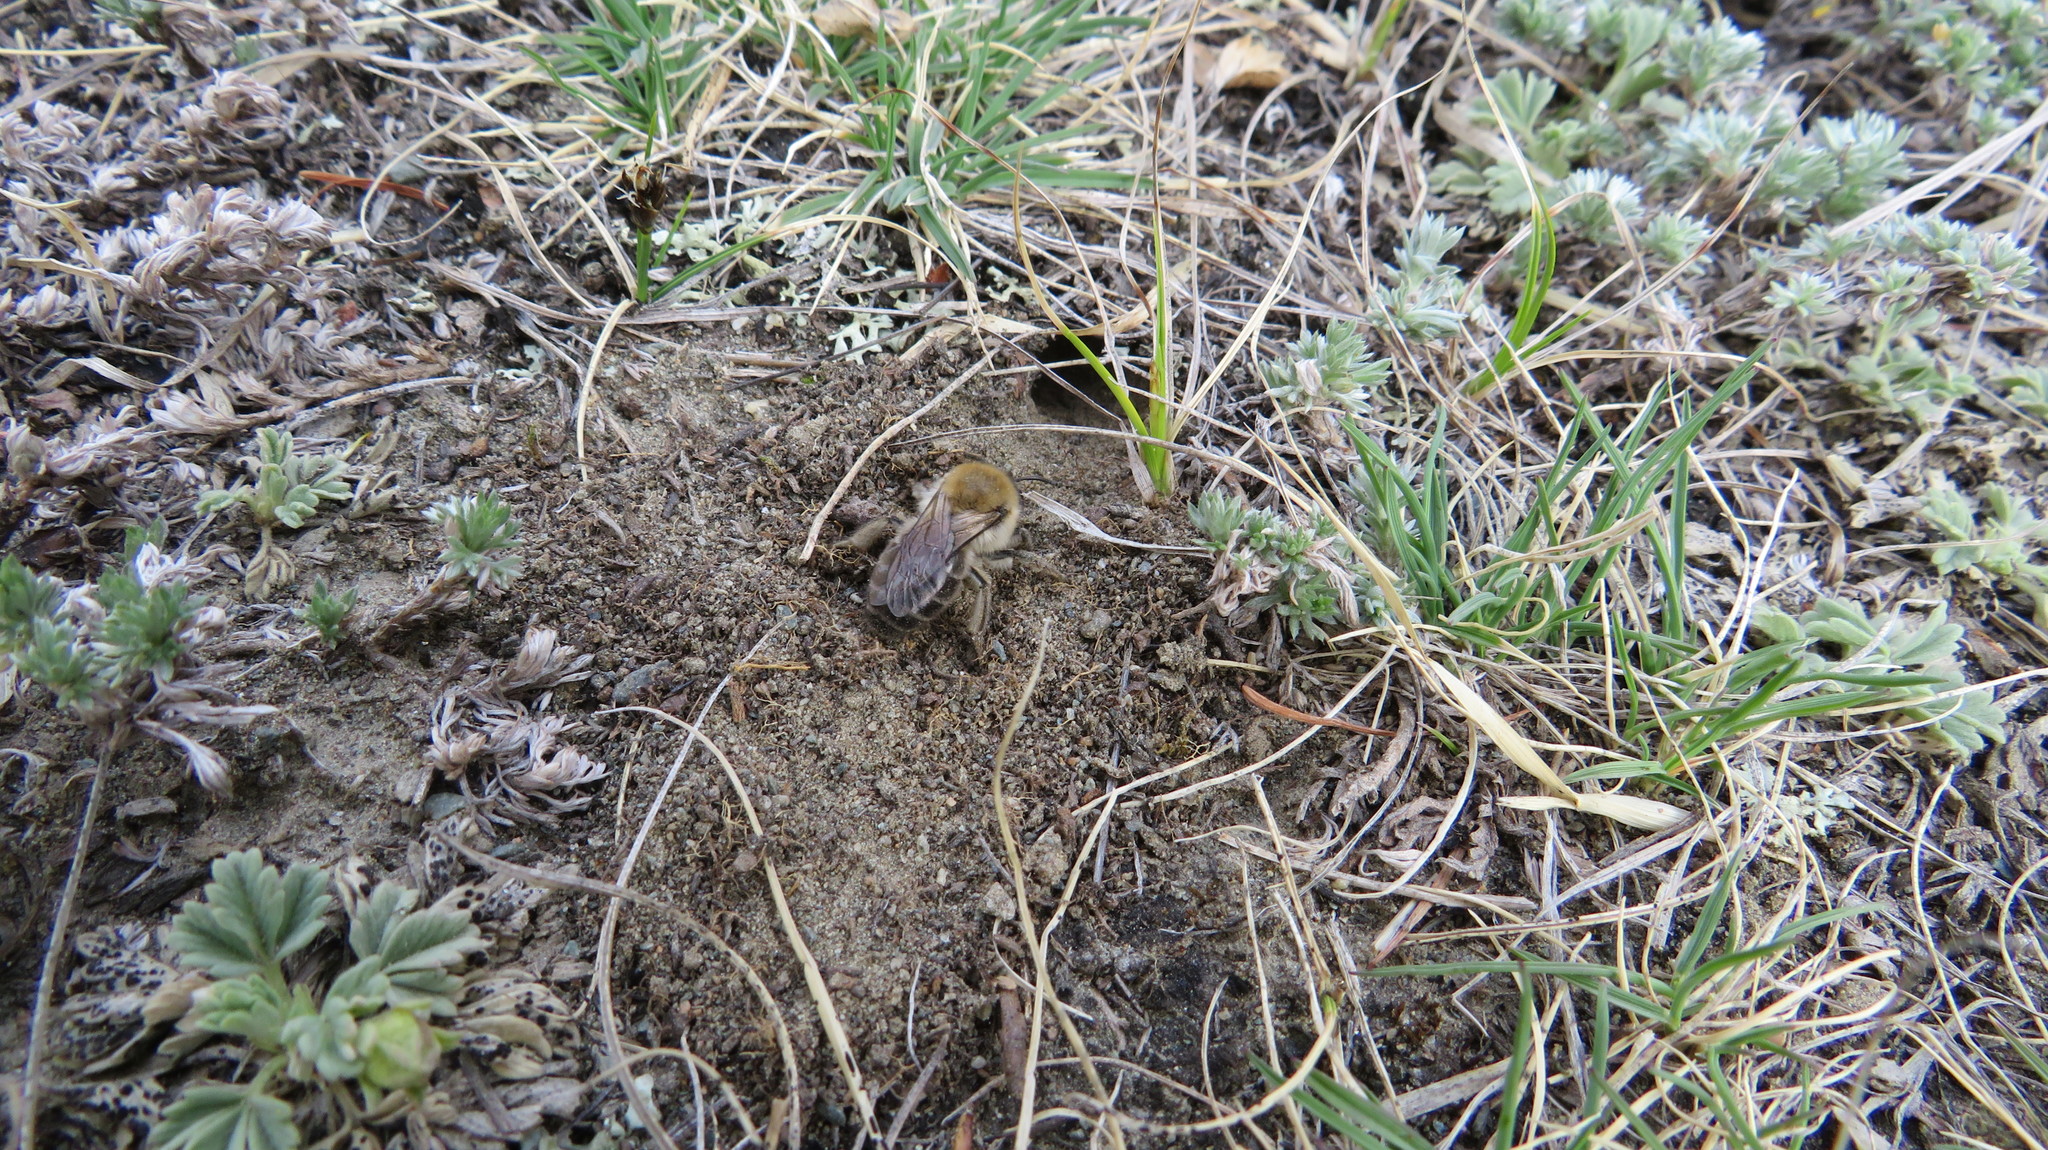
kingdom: Animalia
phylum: Arthropoda
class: Insecta
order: Hymenoptera
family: Colletidae
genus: Colletes
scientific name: Colletes cunicularius
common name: Early colletes
